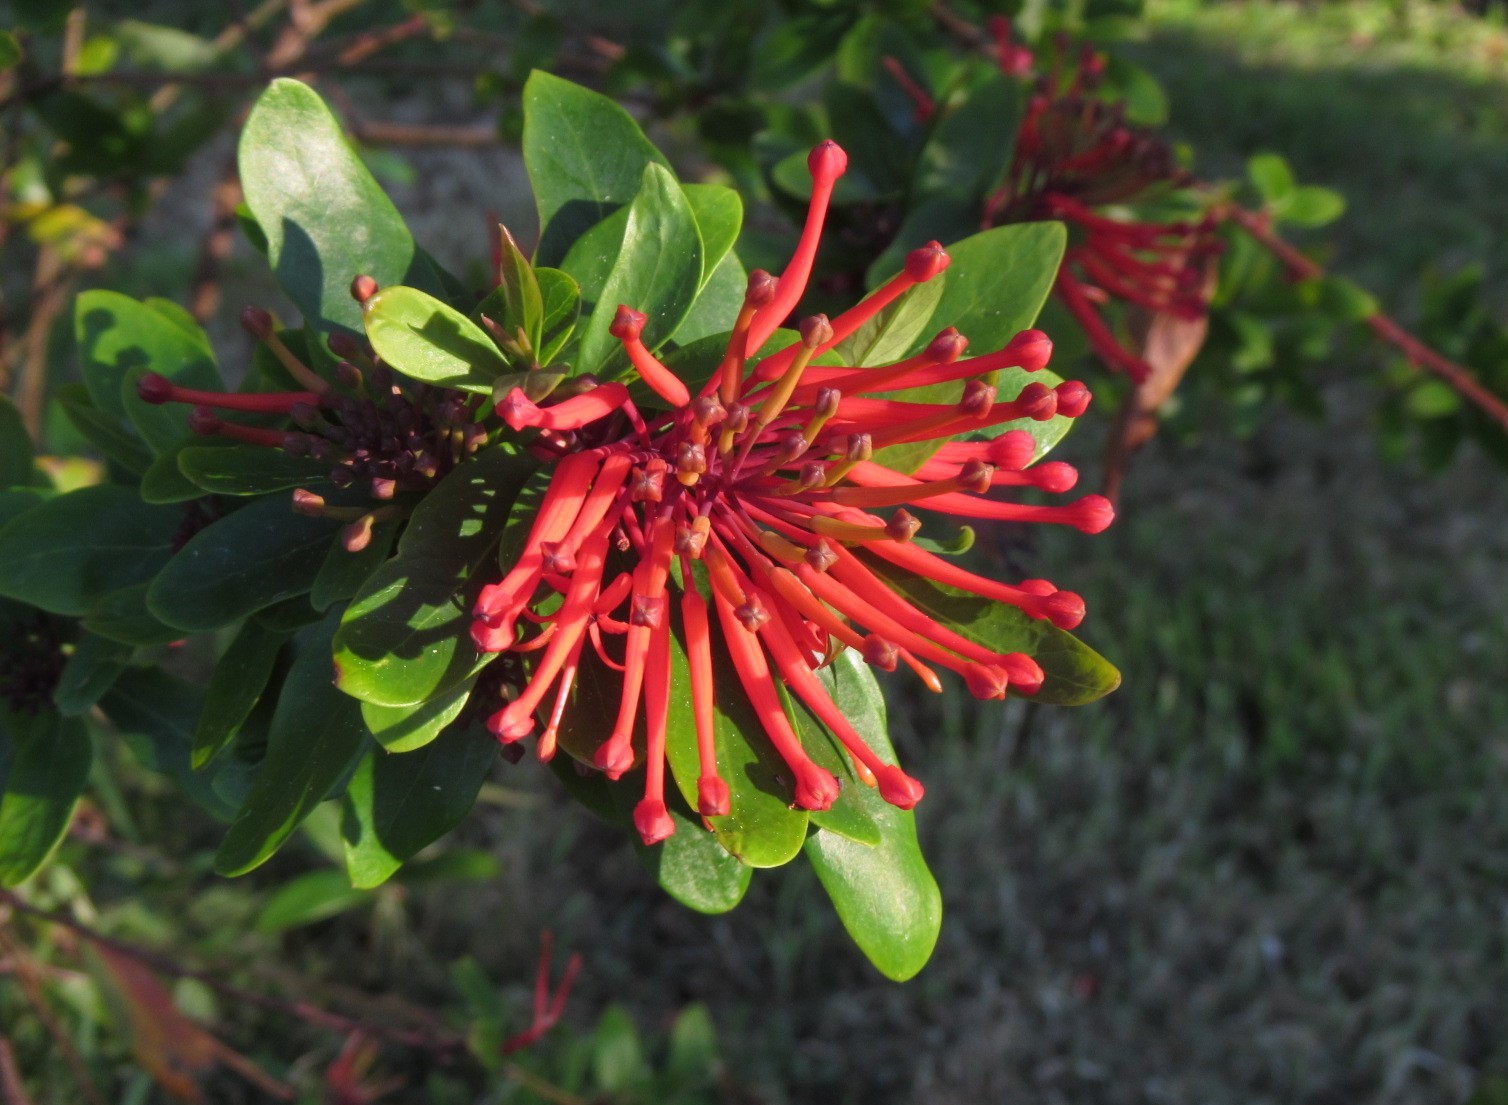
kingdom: Plantae
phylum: Tracheophyta
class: Magnoliopsida
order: Proteales
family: Proteaceae
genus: Embothrium
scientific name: Embothrium coccineum
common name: Chilean firebush
